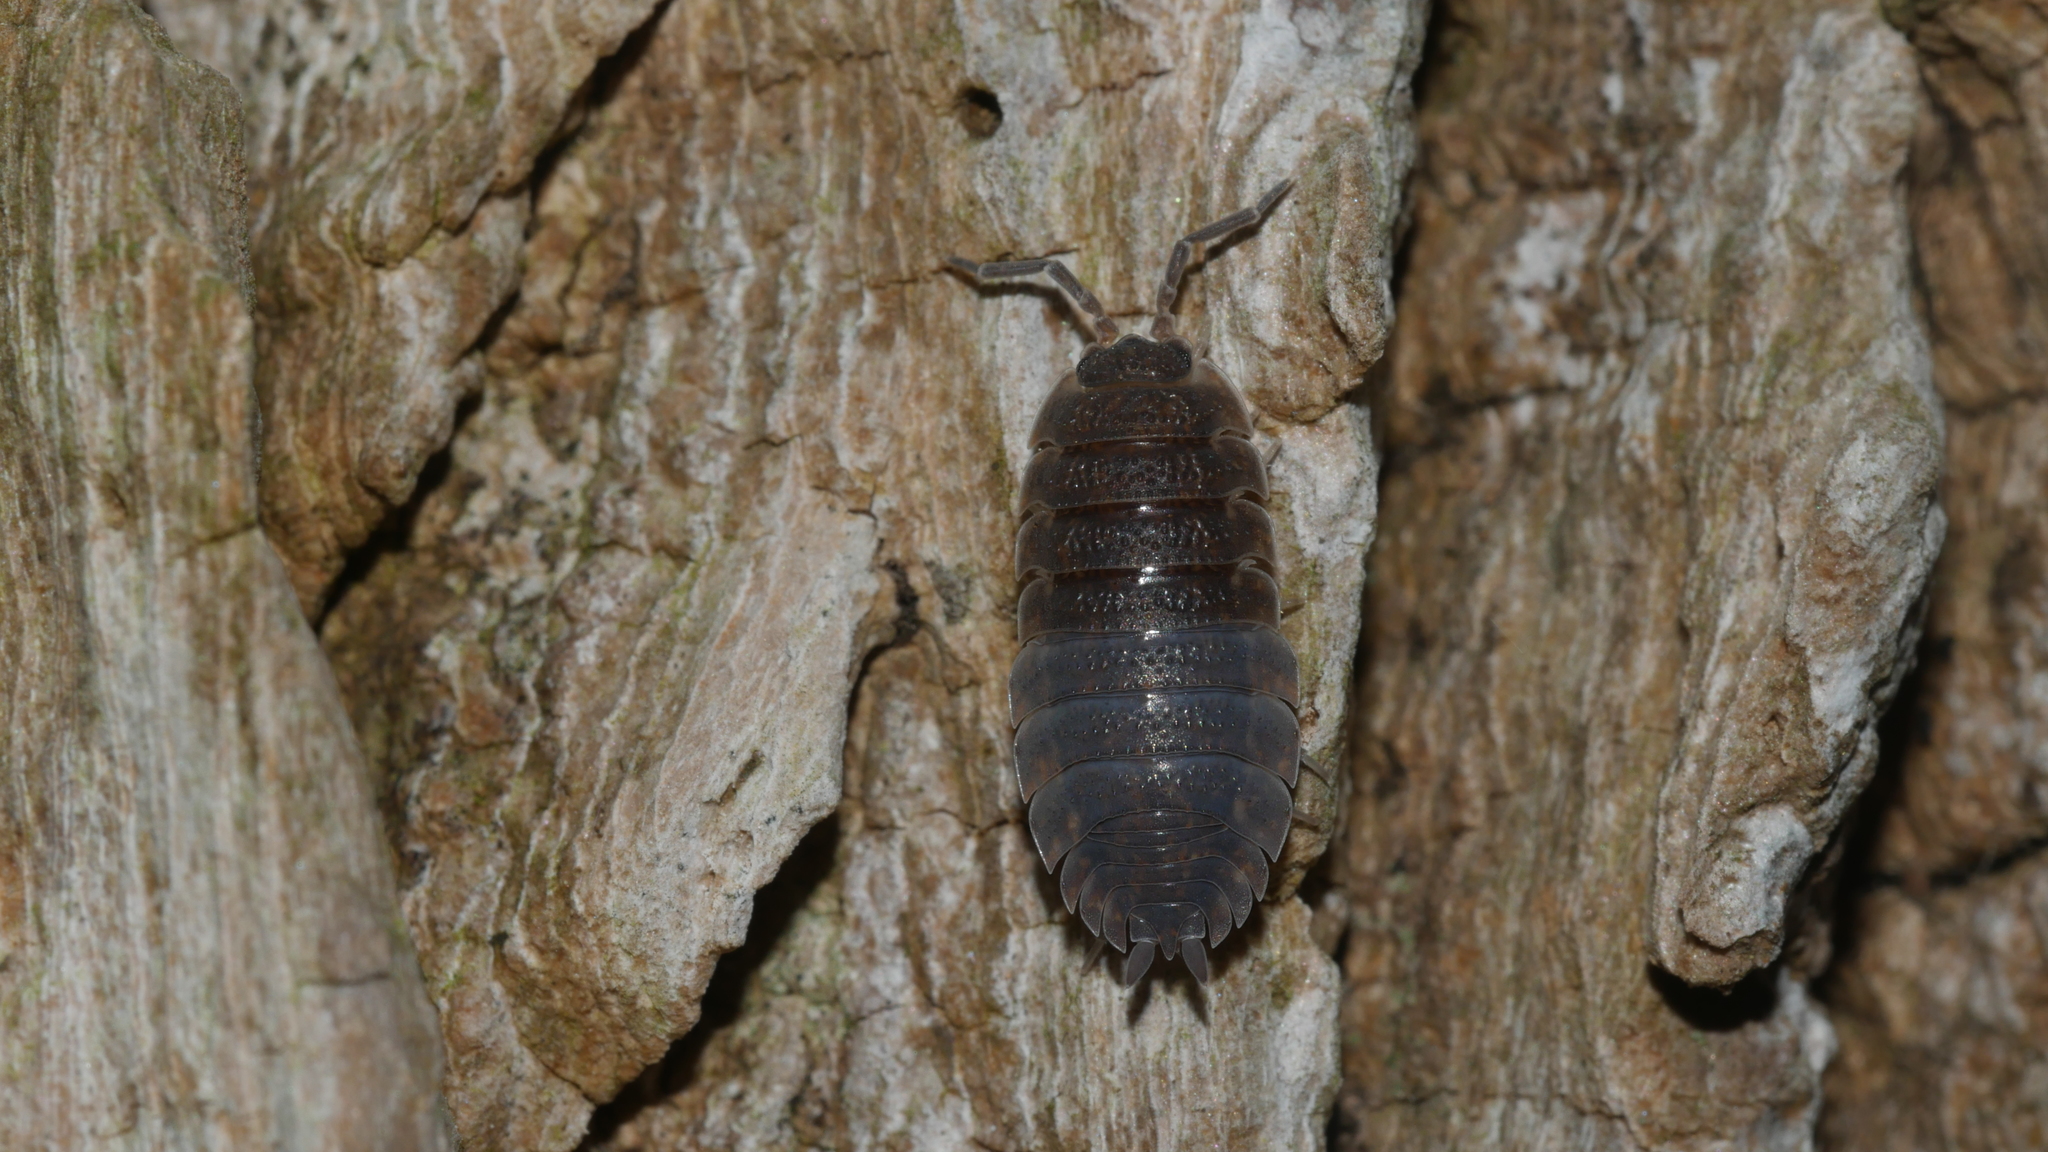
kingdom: Animalia
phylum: Arthropoda
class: Malacostraca
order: Isopoda
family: Porcellionidae
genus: Porcellio
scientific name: Porcellio scaber
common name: Common rough woodlouse
